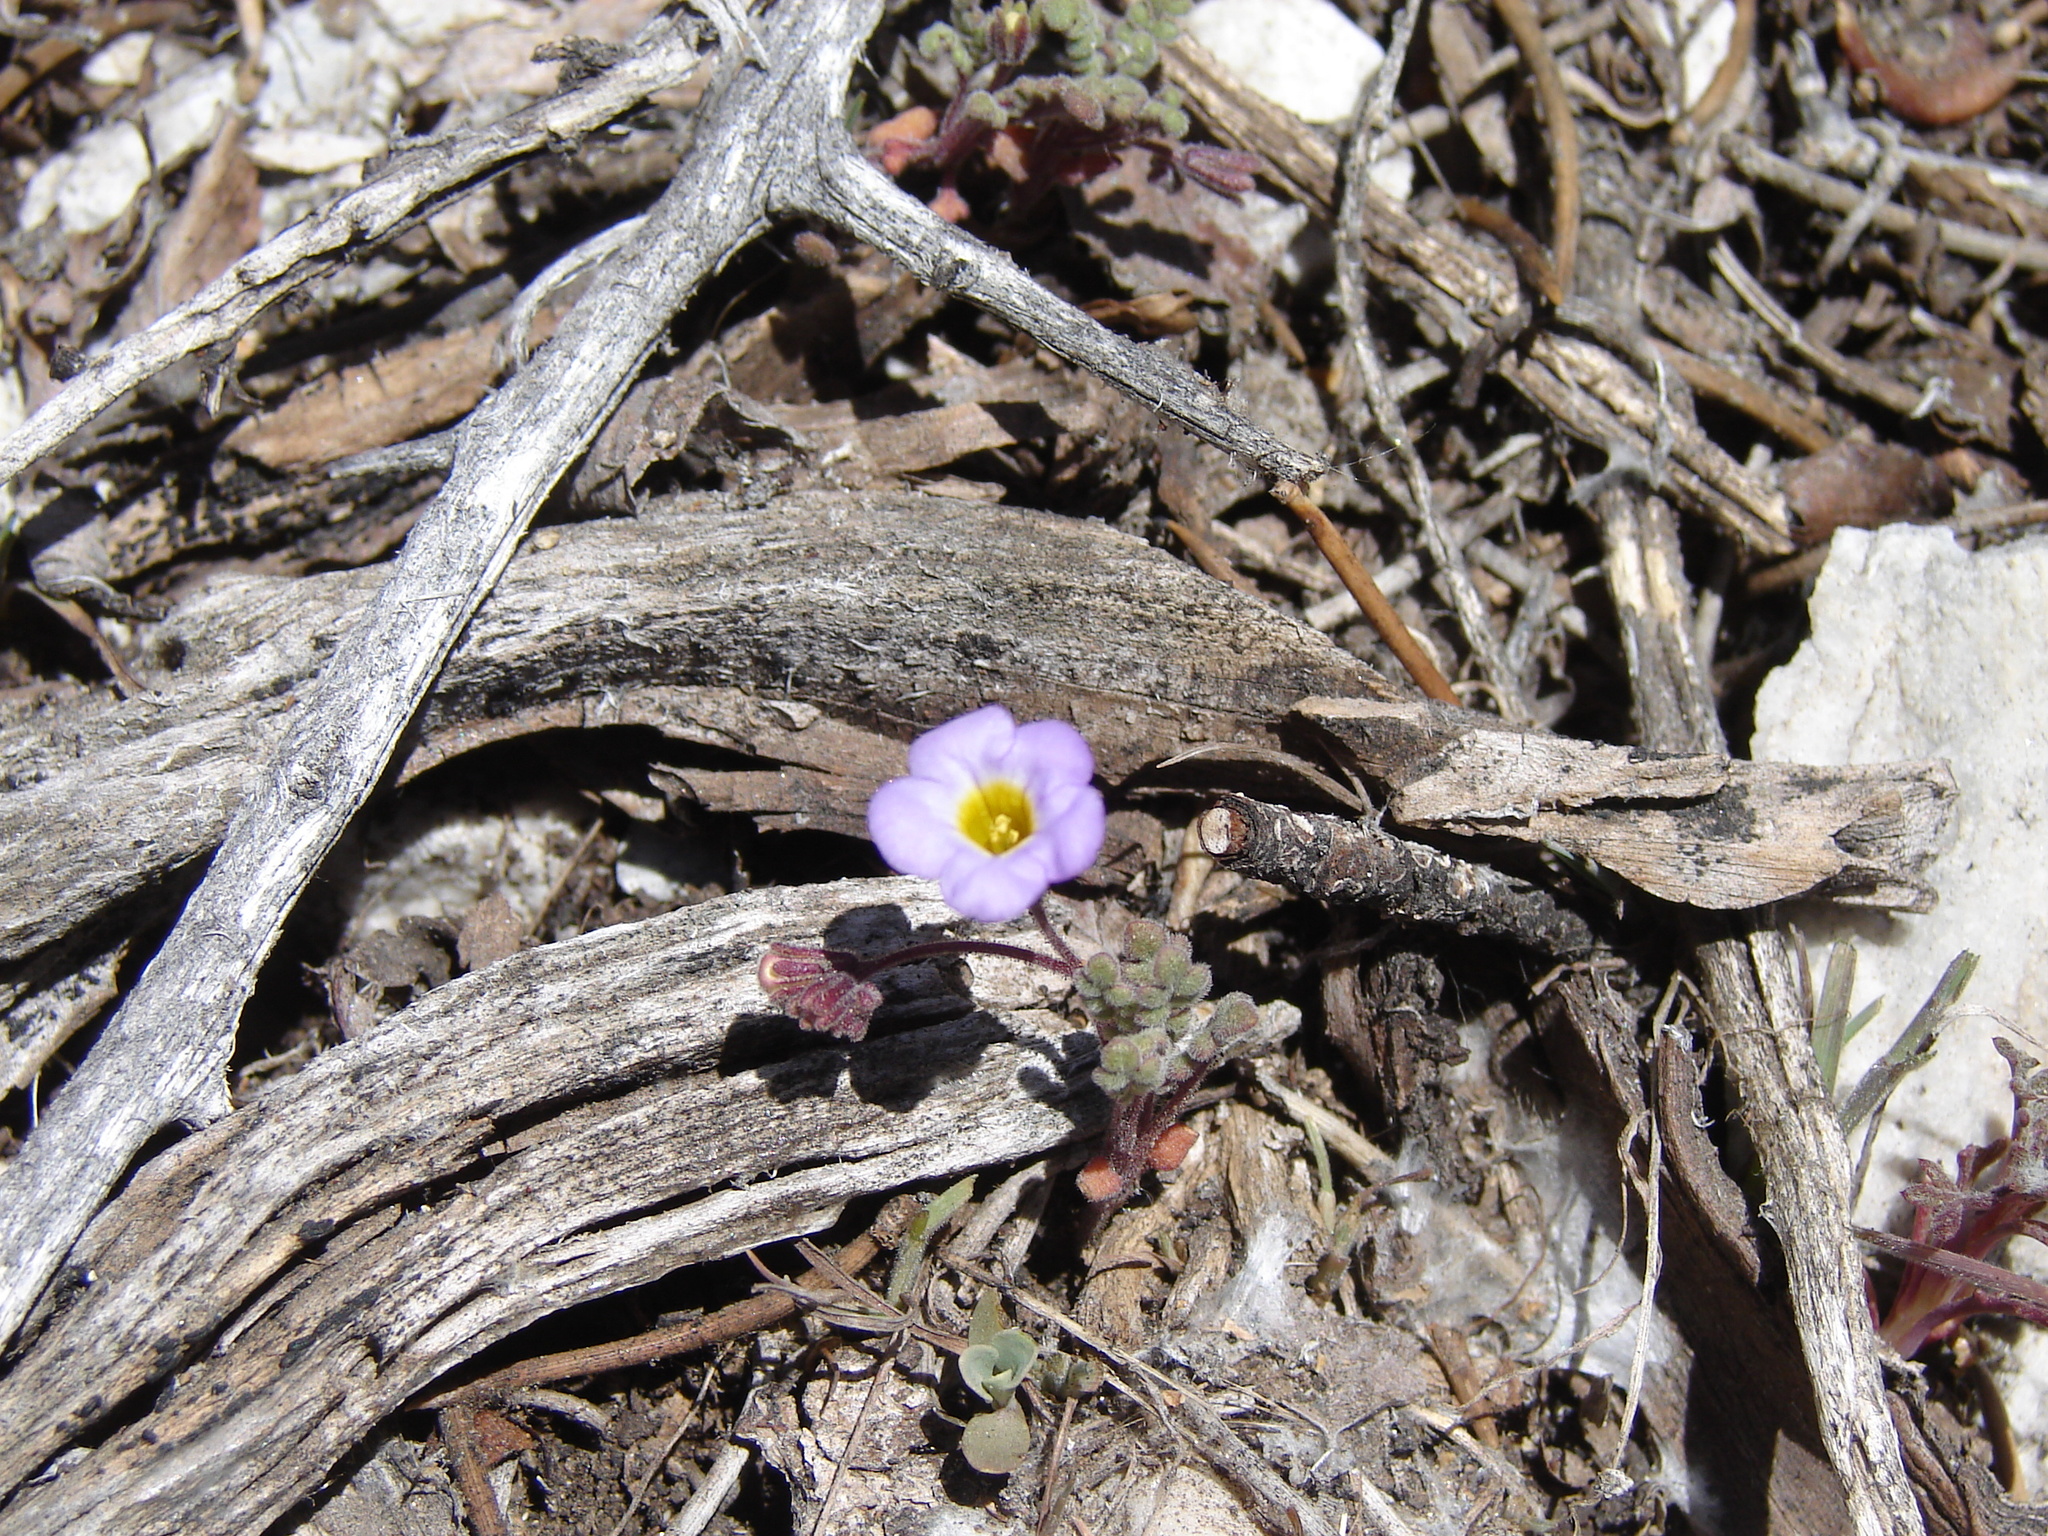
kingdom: Plantae
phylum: Tracheophyta
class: Magnoliopsida
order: Boraginales
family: Hydrophyllaceae
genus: Phacelia
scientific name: Phacelia fremontii
